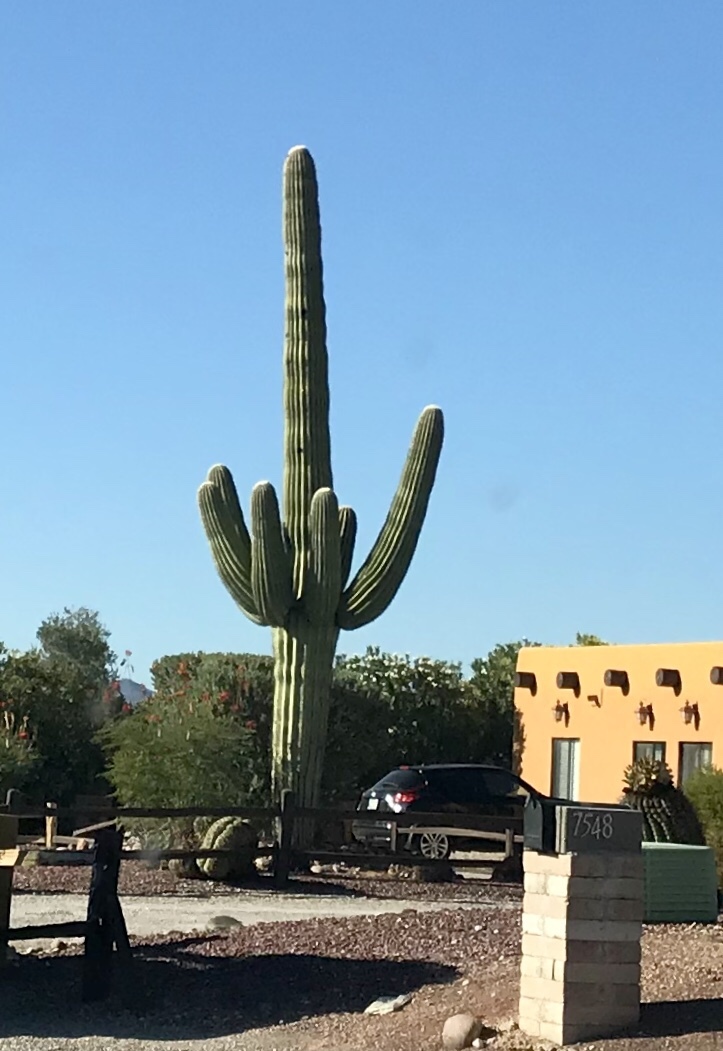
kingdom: Plantae
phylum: Tracheophyta
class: Magnoliopsida
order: Caryophyllales
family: Cactaceae
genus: Carnegiea
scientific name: Carnegiea gigantea
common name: Saguaro
